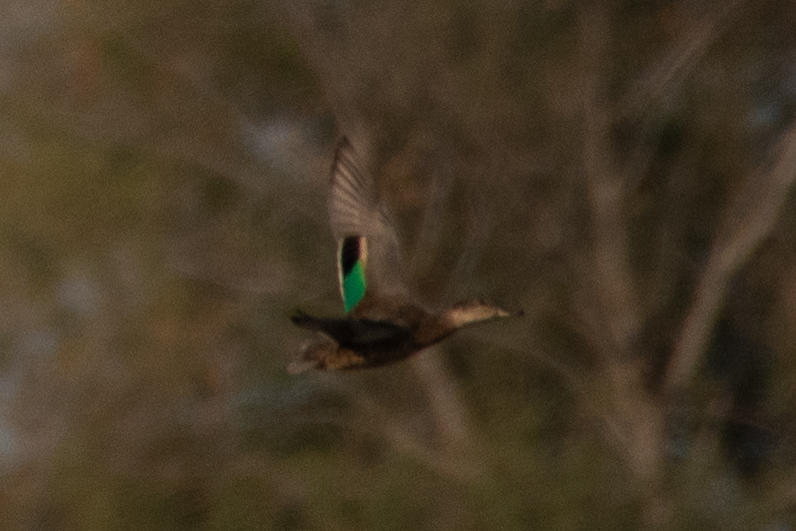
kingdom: Animalia
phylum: Chordata
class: Aves
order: Anseriformes
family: Anatidae
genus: Anas
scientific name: Anas crecca
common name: Eurasian teal
